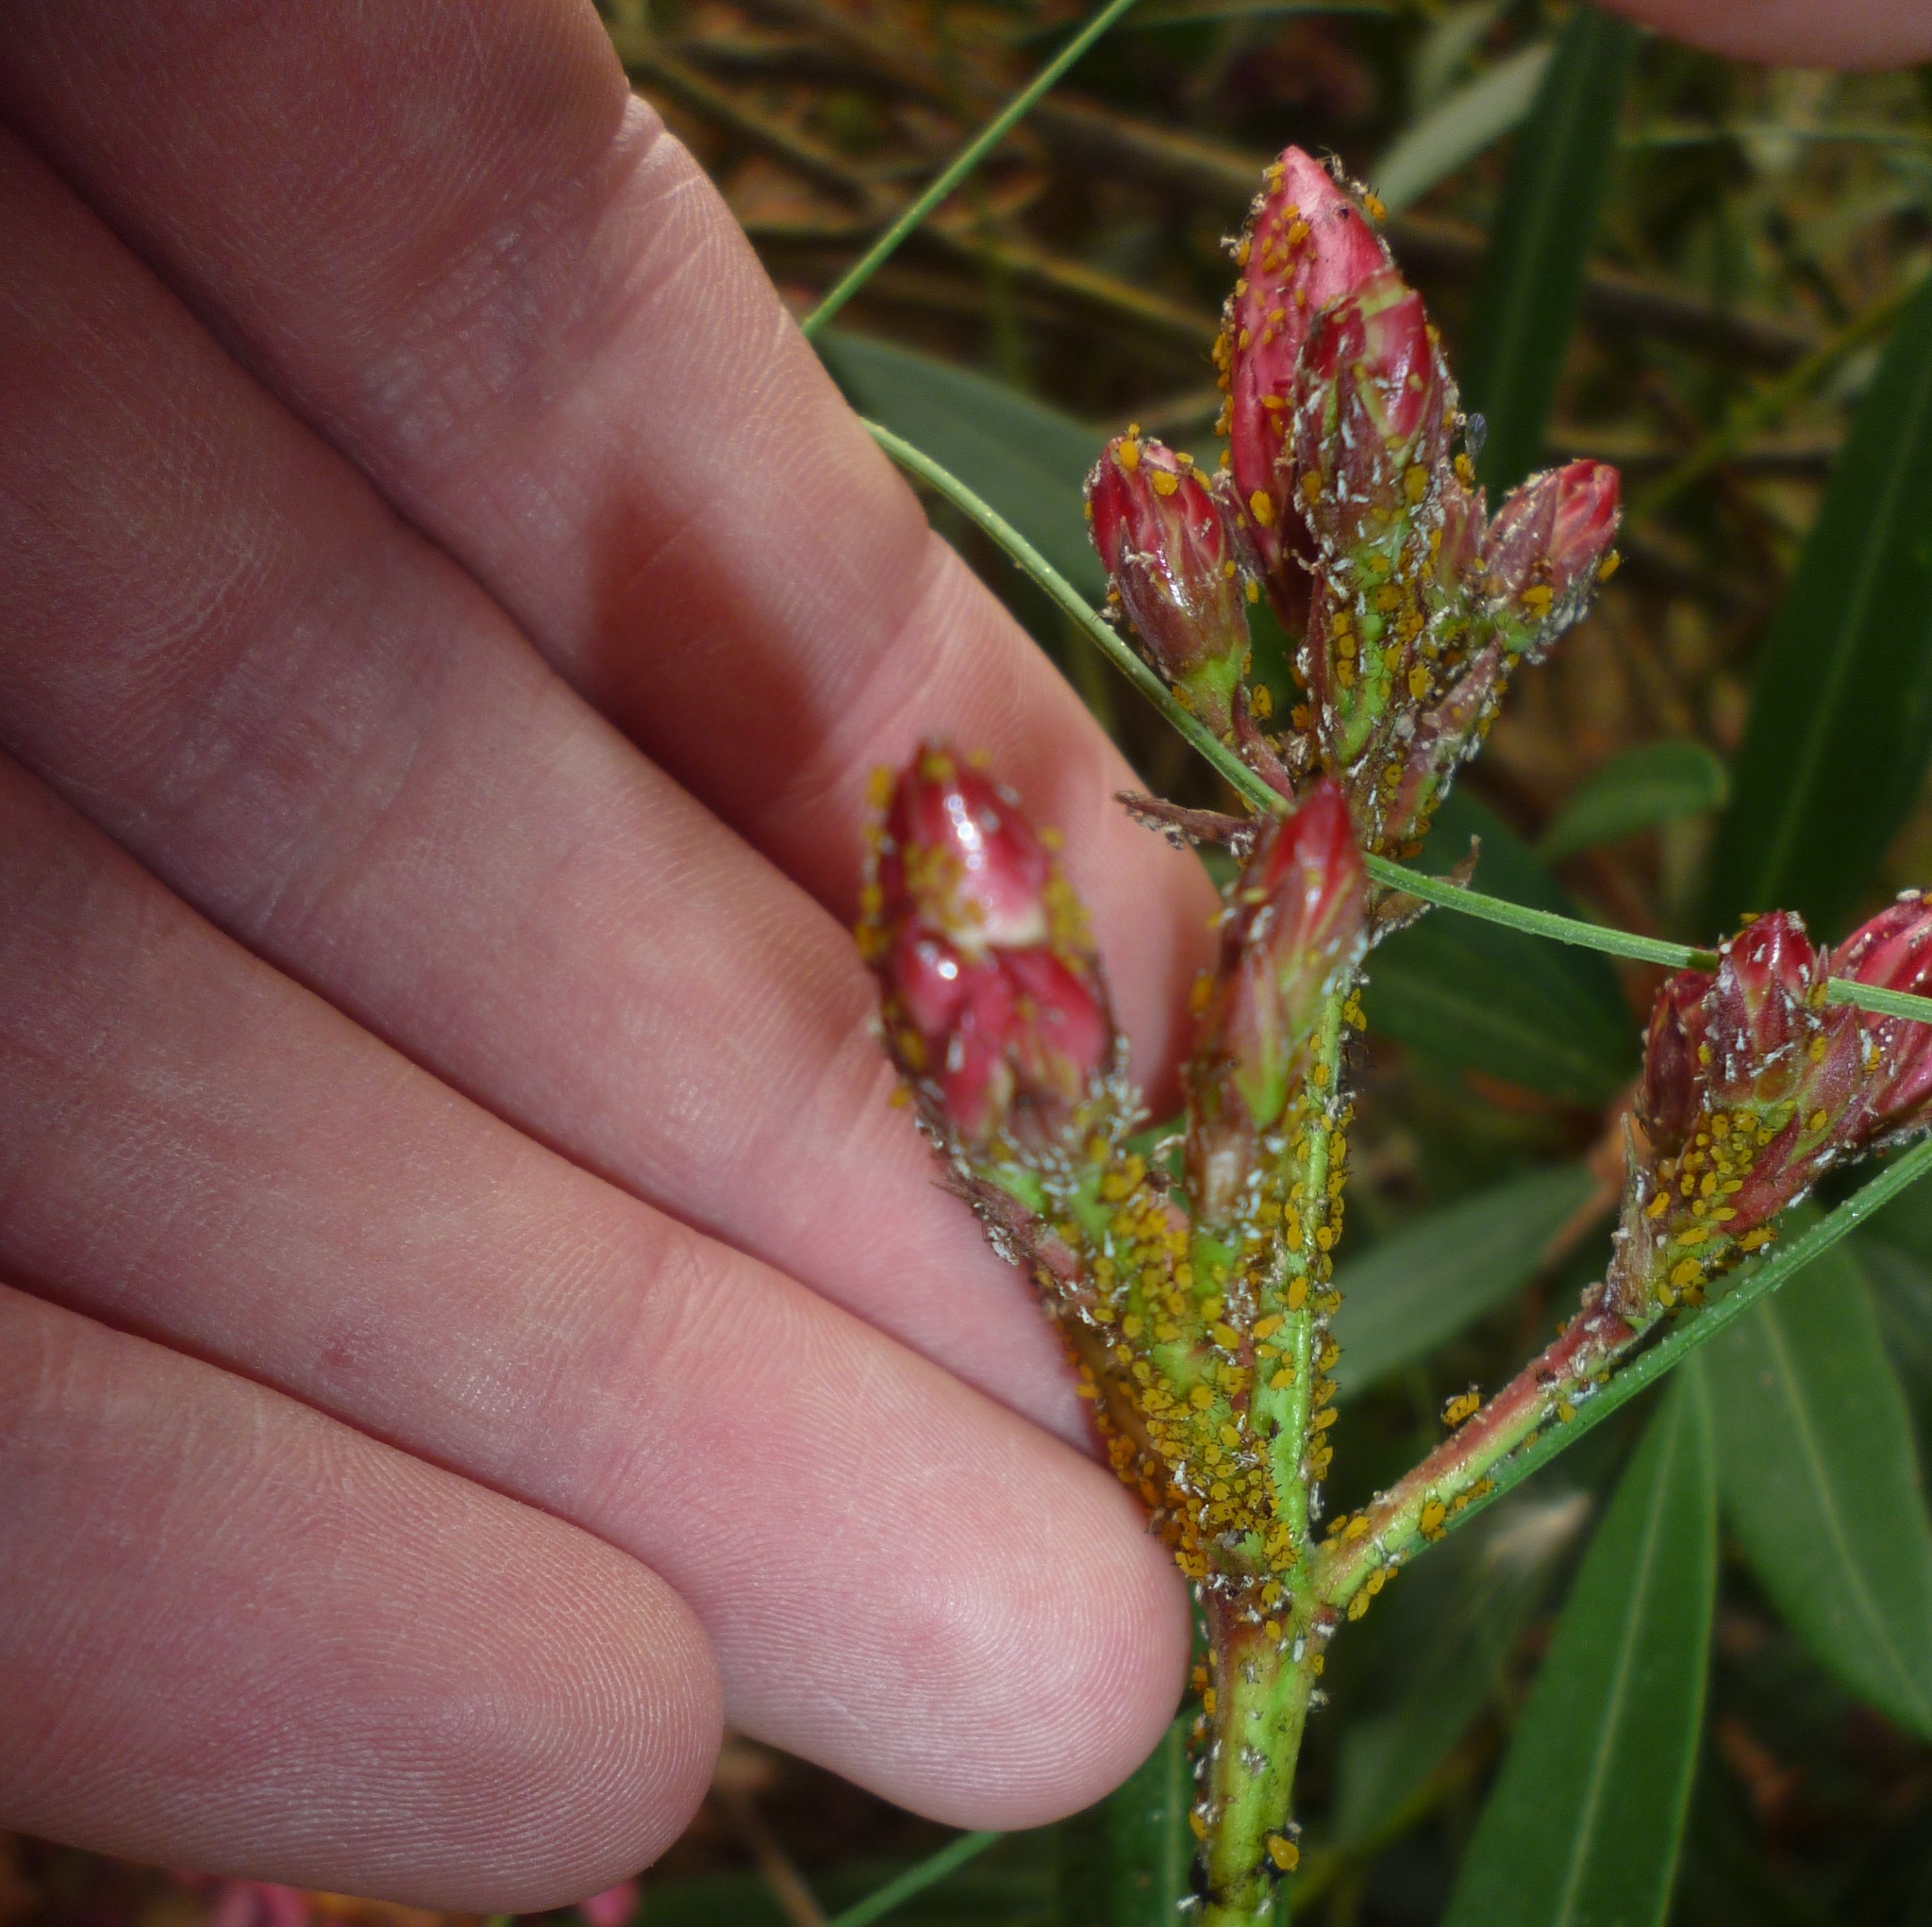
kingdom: Animalia
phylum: Arthropoda
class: Insecta
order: Hemiptera
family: Aphididae
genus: Aphis
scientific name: Aphis nerii
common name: Oleander aphid
